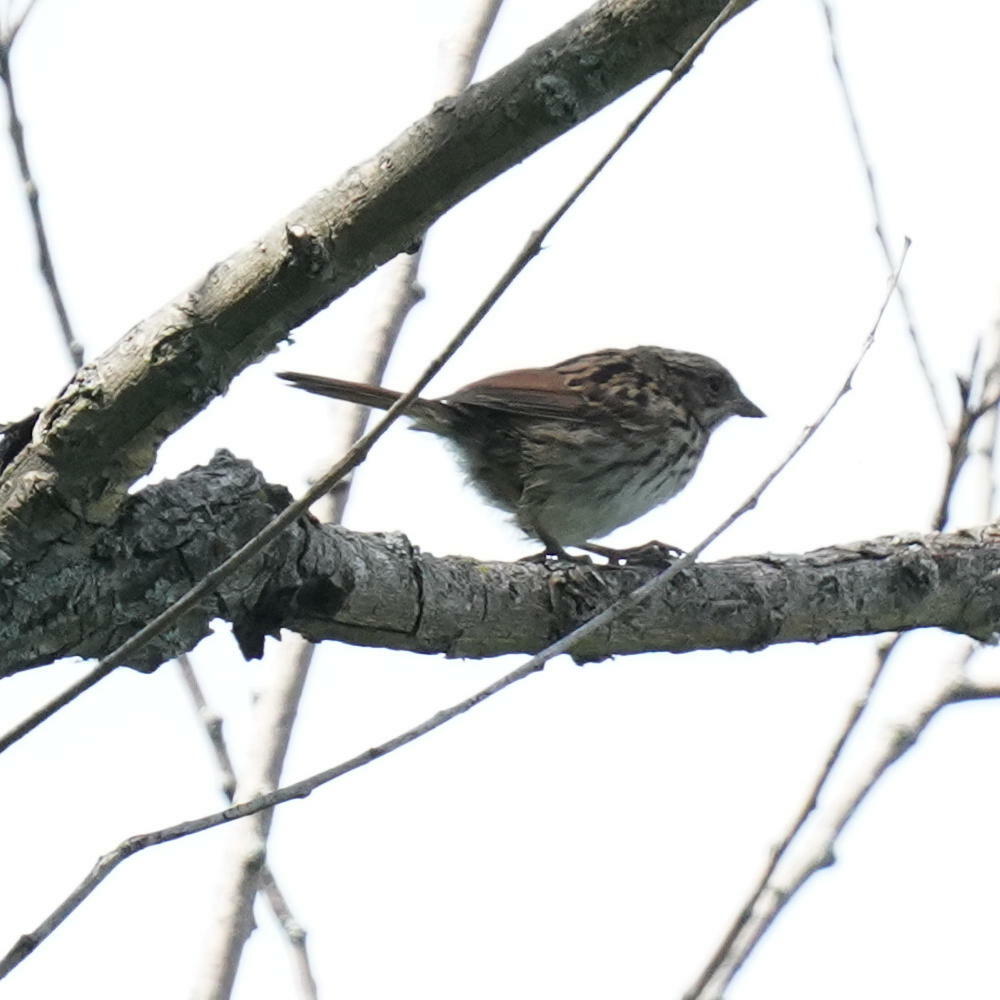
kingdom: Animalia
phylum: Chordata
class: Aves
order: Passeriformes
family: Passerellidae
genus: Melospiza
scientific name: Melospiza melodia
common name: Song sparrow
